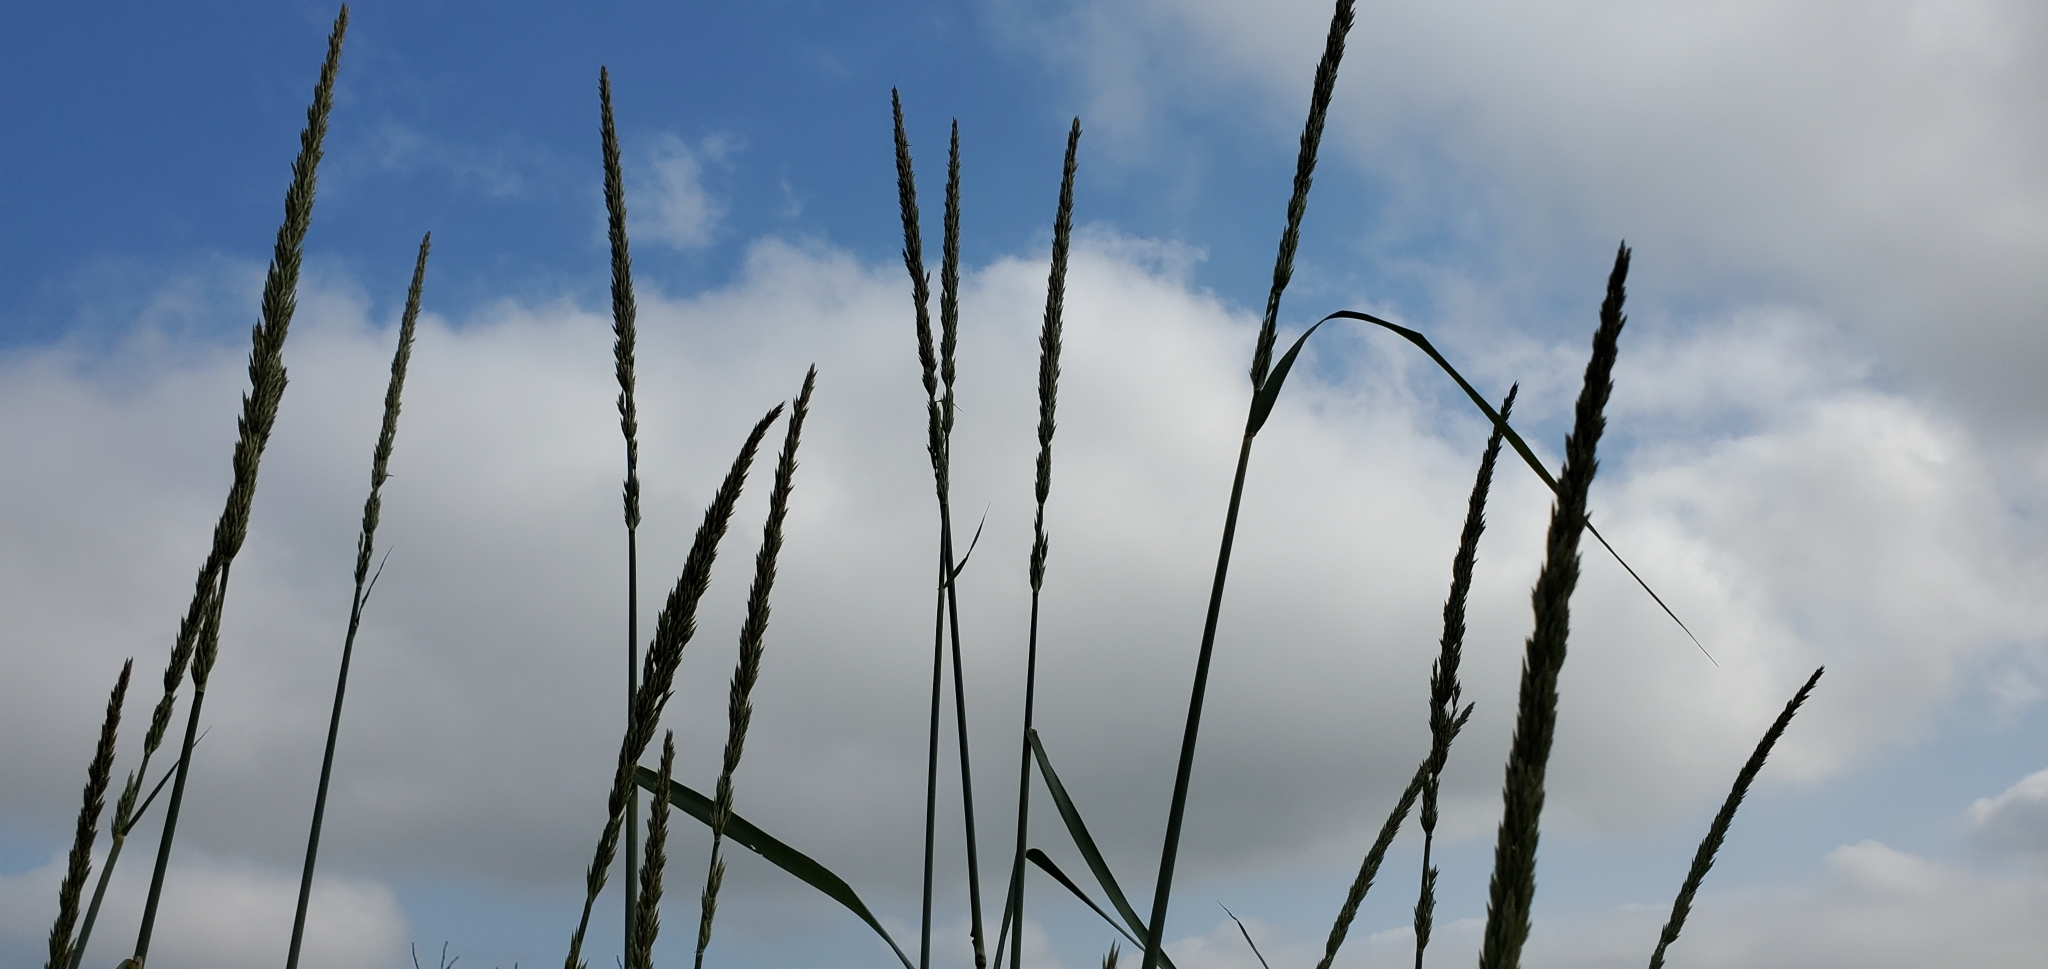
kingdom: Plantae
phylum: Tracheophyta
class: Liliopsida
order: Poales
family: Poaceae
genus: Leymus
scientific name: Leymus condensatus
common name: Giant wild rye
